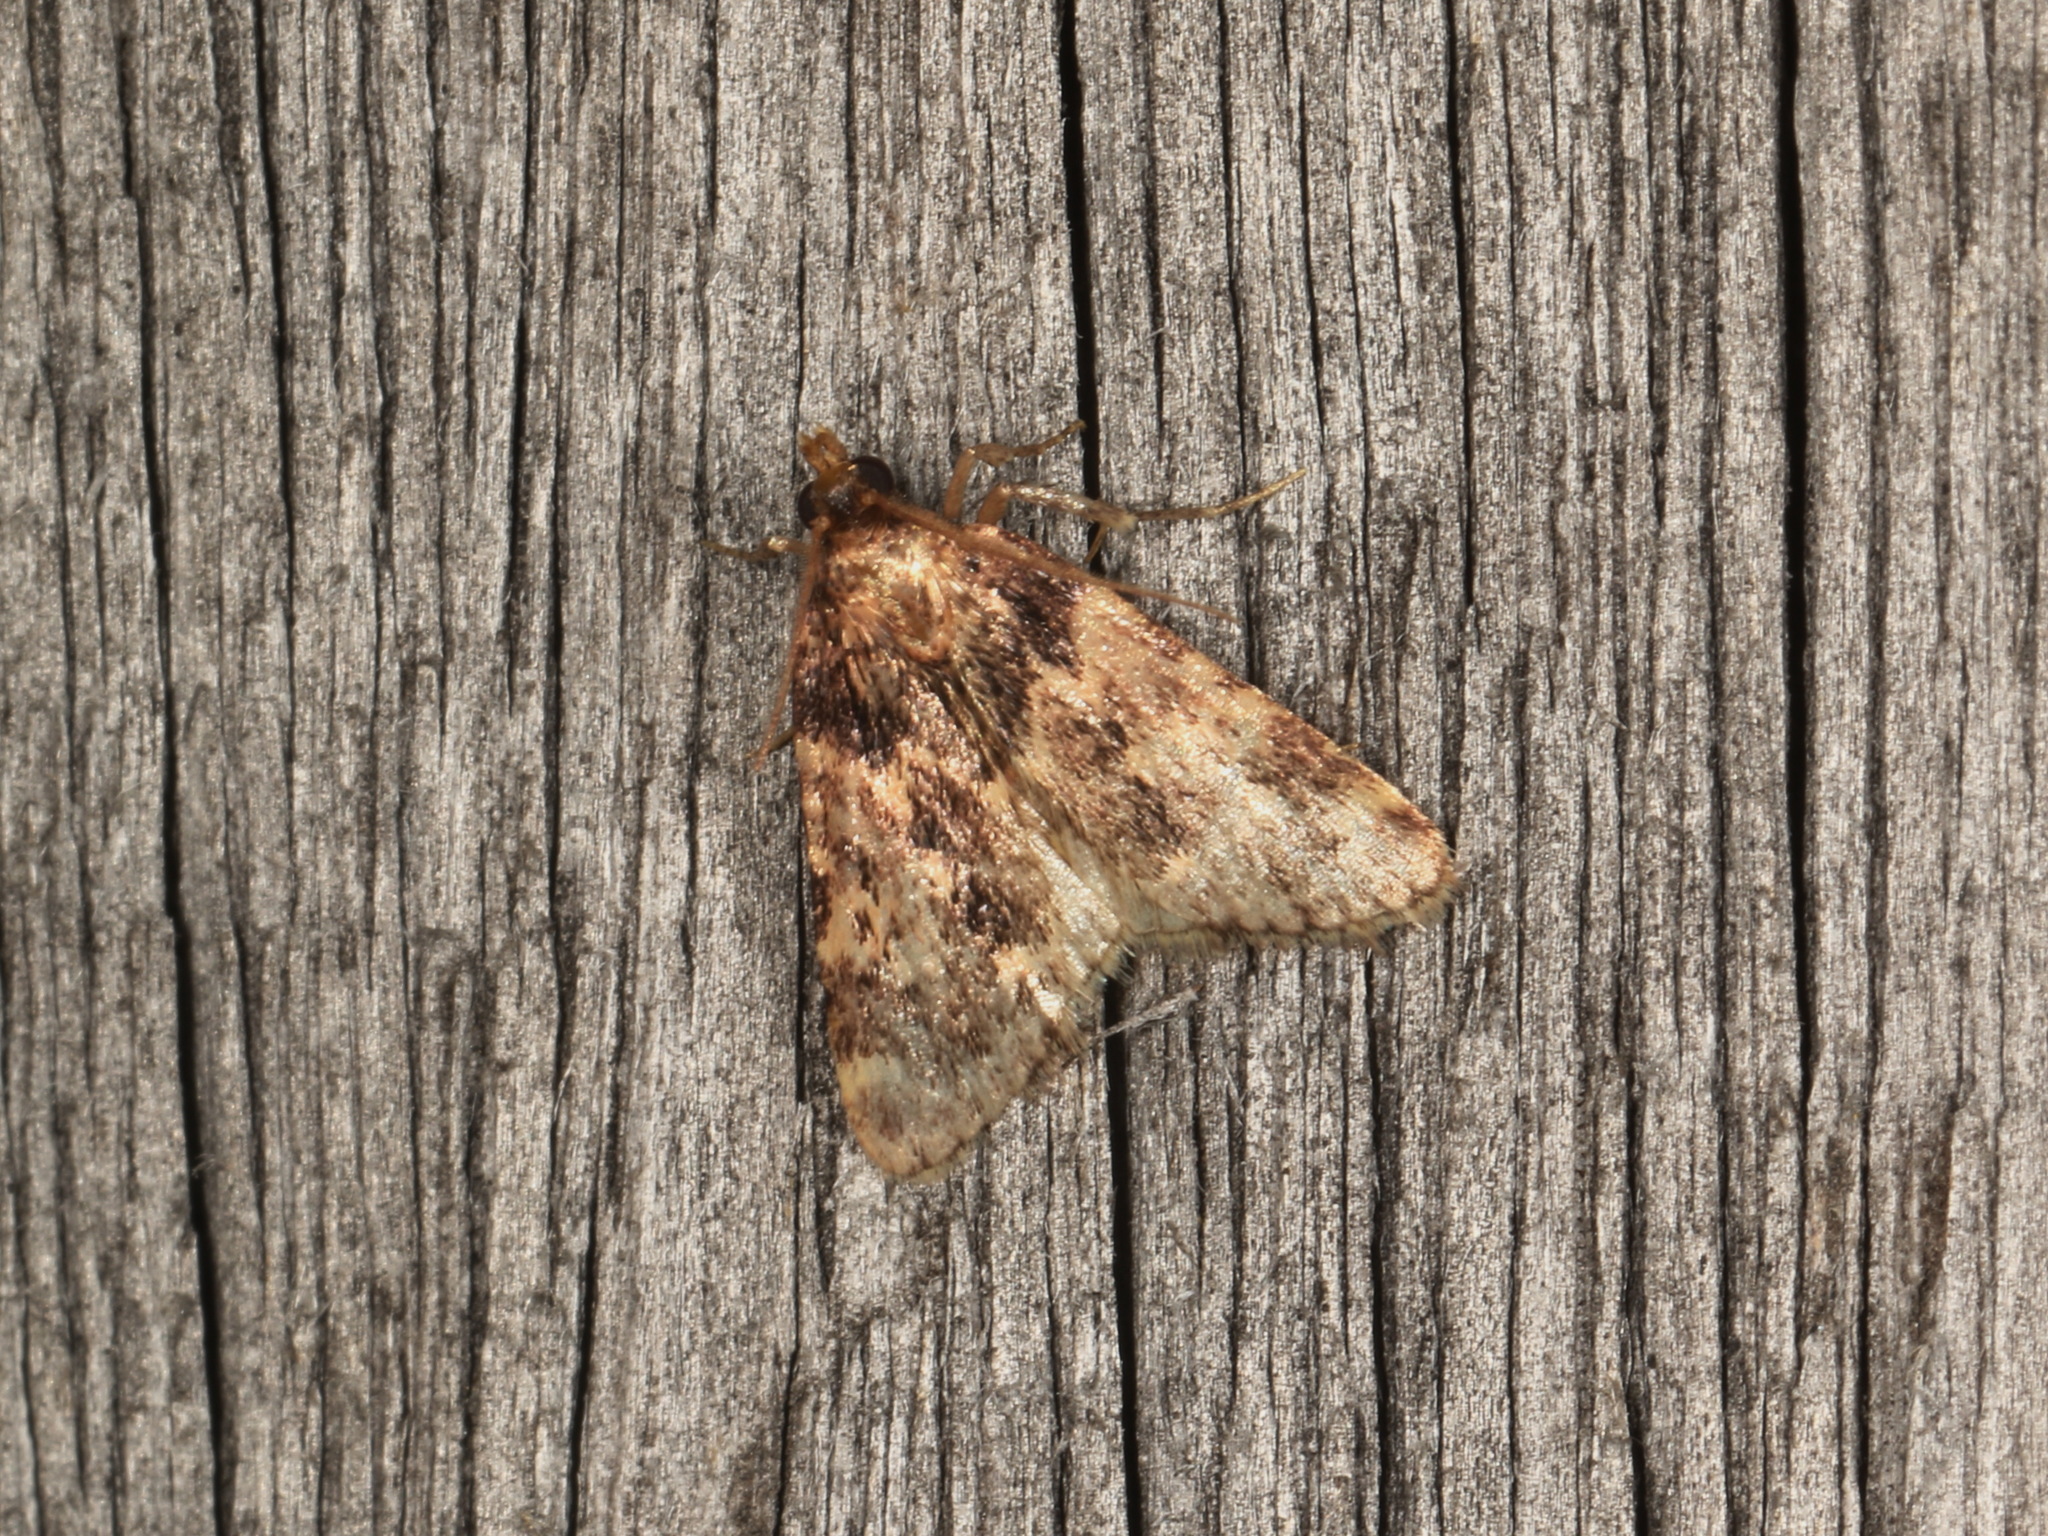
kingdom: Animalia
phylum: Arthropoda
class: Insecta
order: Lepidoptera
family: Pyralidae
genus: Aglossa
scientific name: Aglossa caprealis
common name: Small tabby
